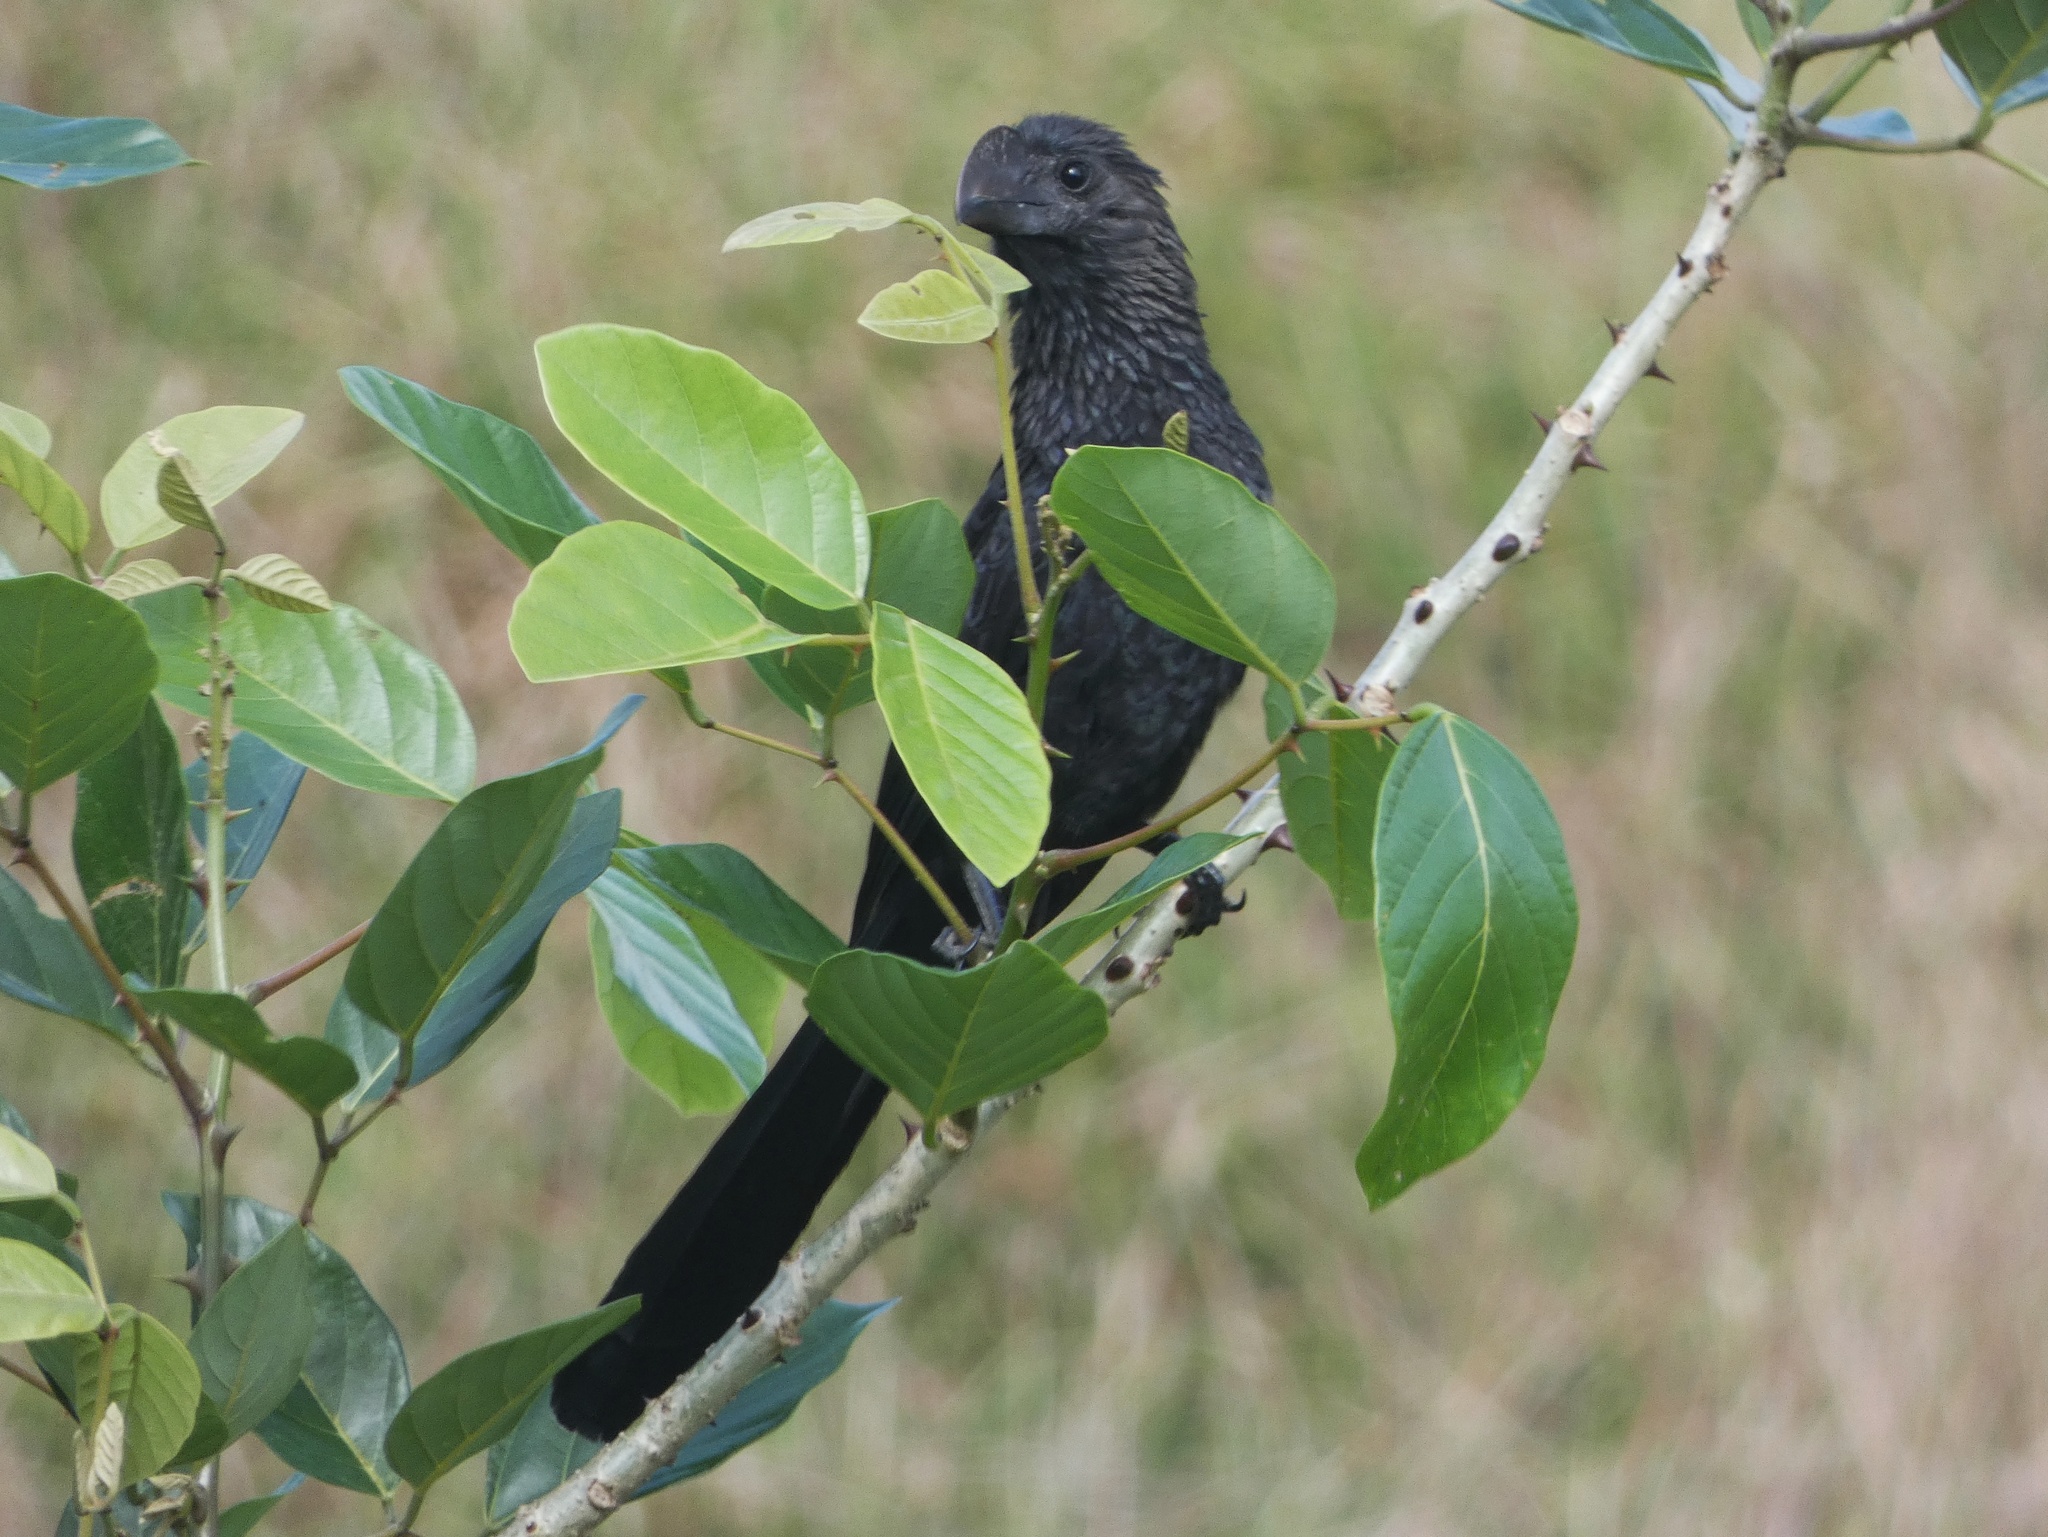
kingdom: Animalia
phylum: Chordata
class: Aves
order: Cuculiformes
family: Cuculidae
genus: Crotophaga
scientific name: Crotophaga ani
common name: Smooth-billed ani
